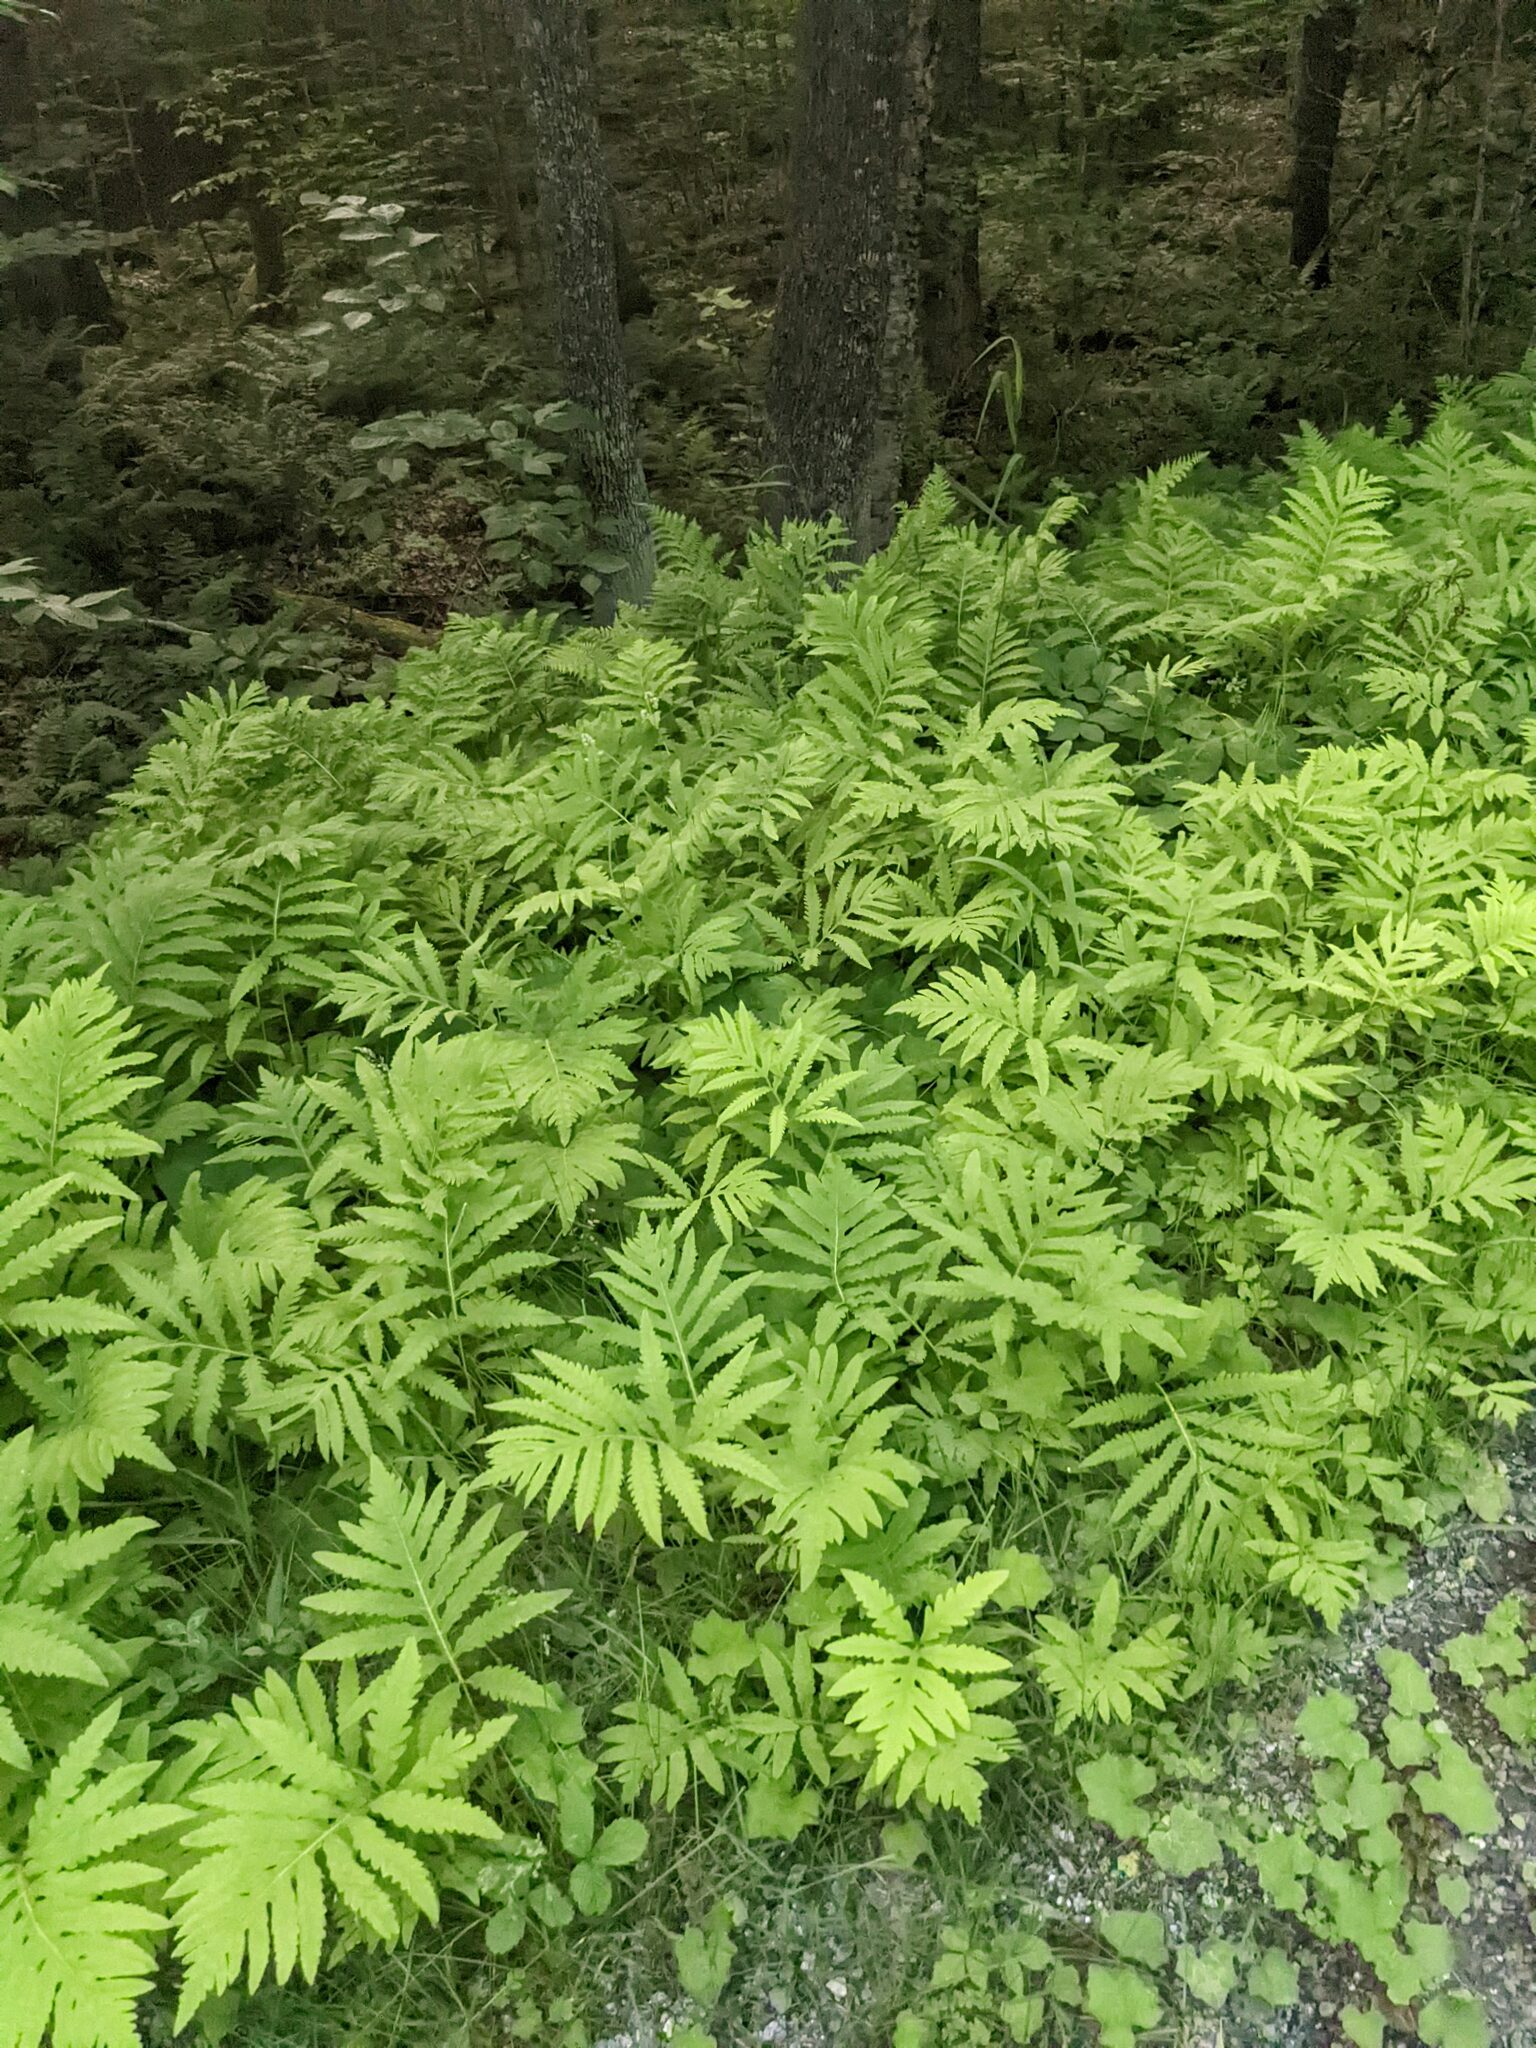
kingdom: Plantae
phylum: Tracheophyta
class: Polypodiopsida
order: Polypodiales
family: Onocleaceae
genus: Onoclea
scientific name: Onoclea sensibilis
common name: Sensitive fern
